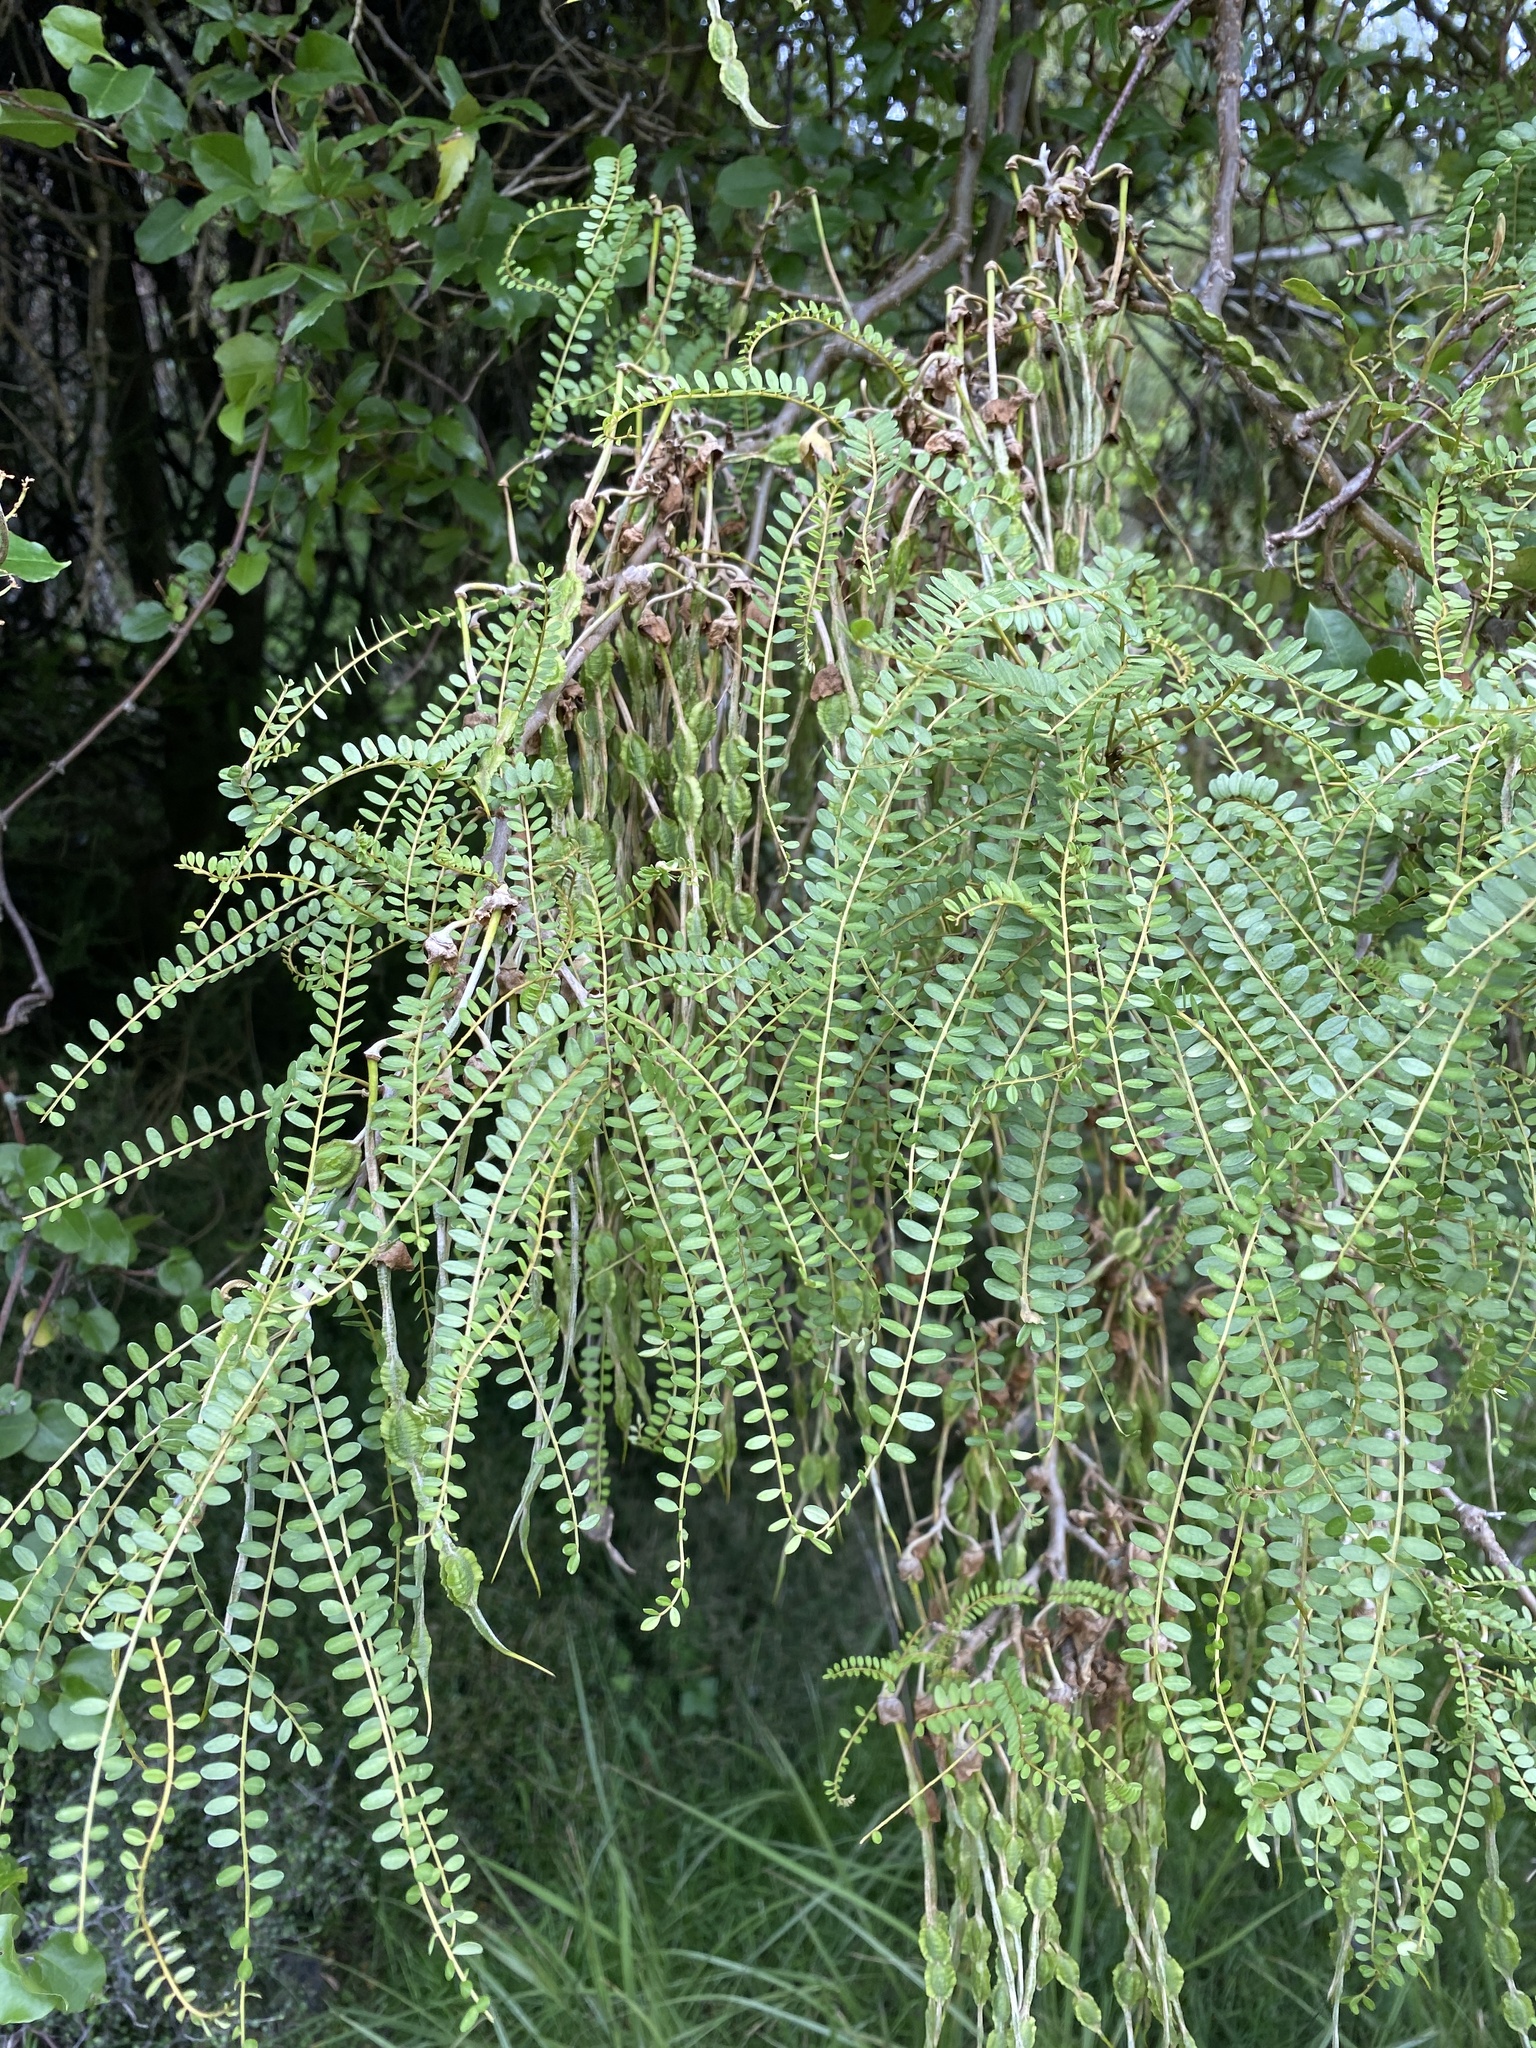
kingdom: Plantae
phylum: Tracheophyta
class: Magnoliopsida
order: Fabales
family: Fabaceae
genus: Sophora
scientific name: Sophora microphylla
